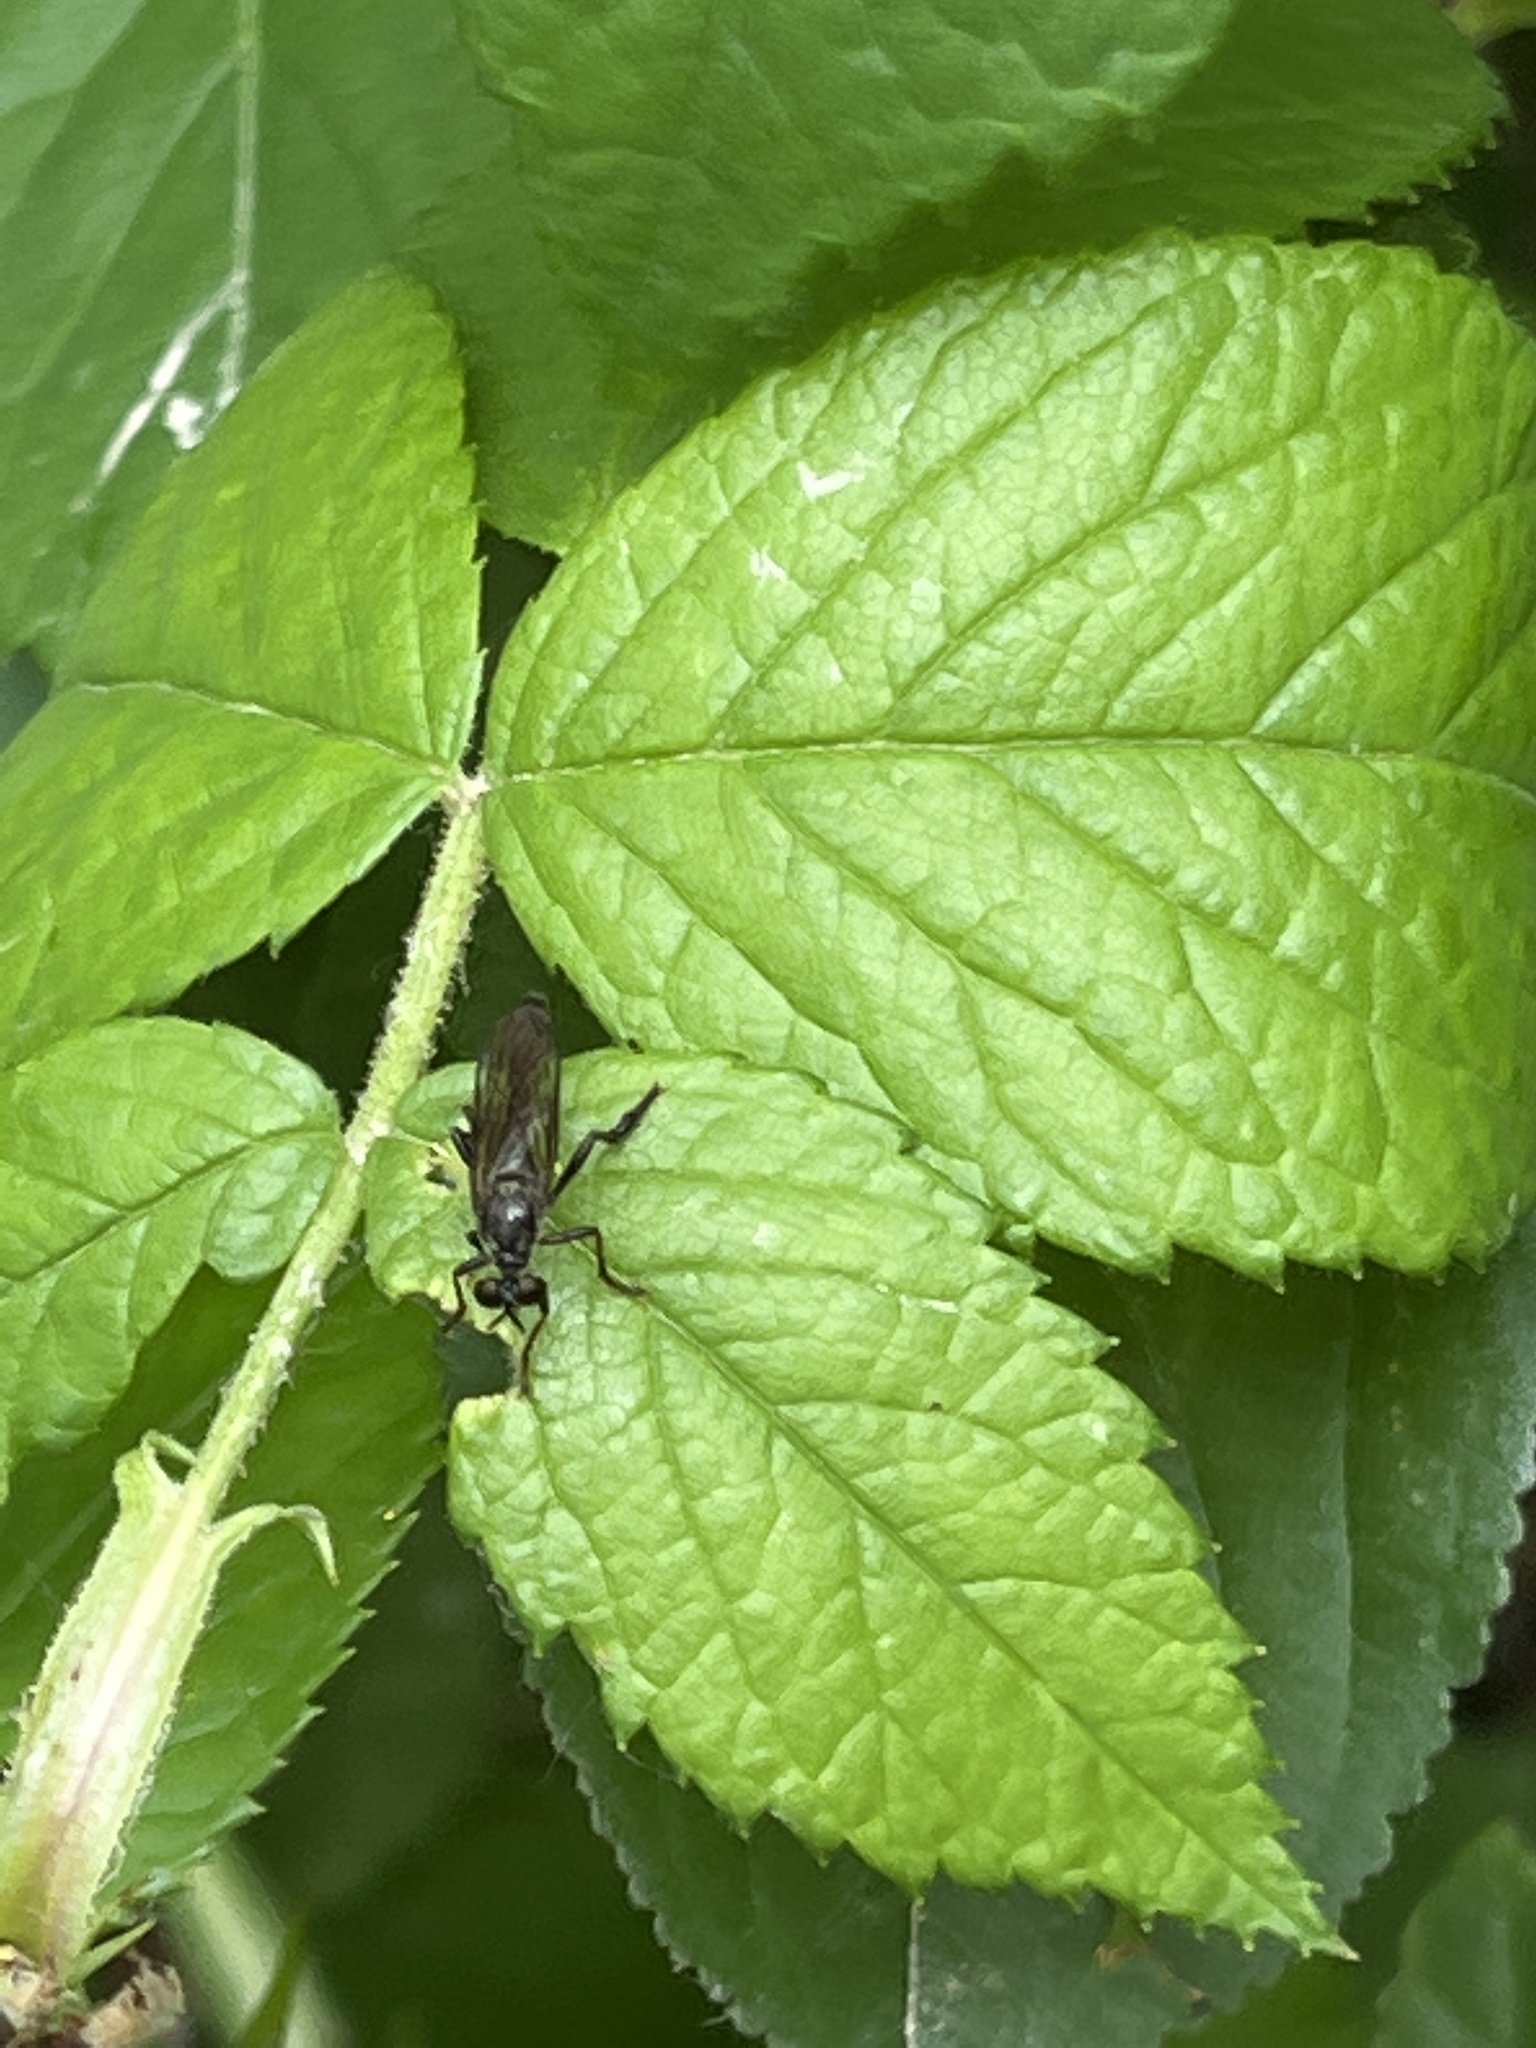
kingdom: Animalia
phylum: Arthropoda
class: Insecta
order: Diptera
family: Asilidae
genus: Dioctria
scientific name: Dioctria hyalipennis
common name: Stripe-legged robberfly
